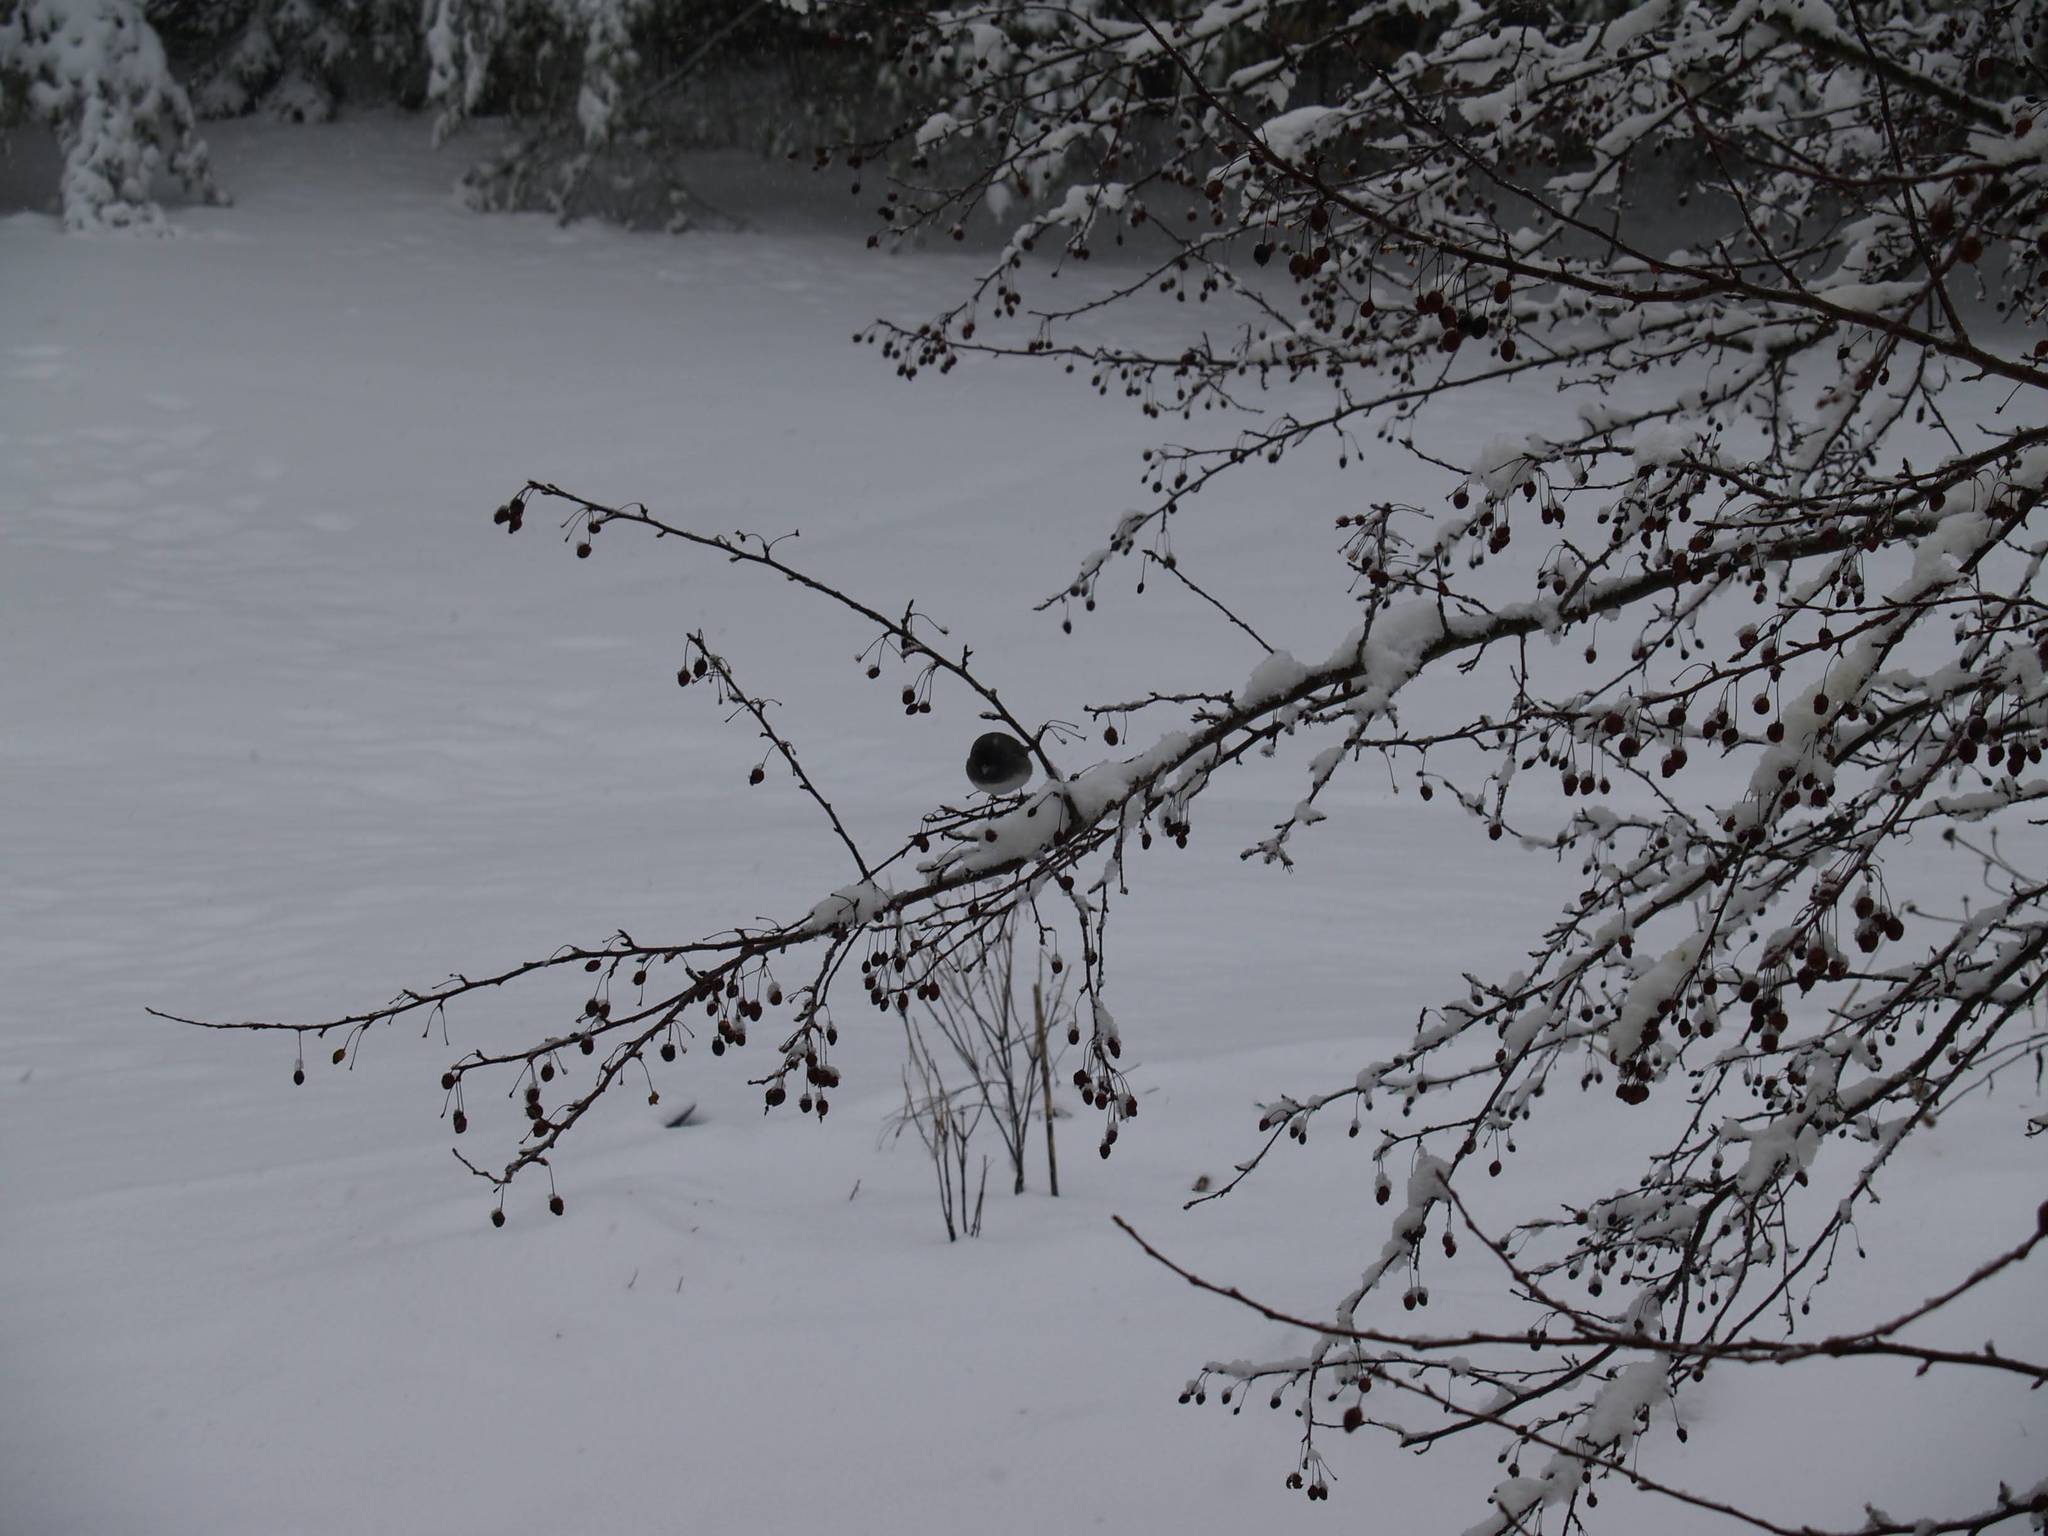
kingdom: Animalia
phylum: Chordata
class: Aves
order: Passeriformes
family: Passerellidae
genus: Junco
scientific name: Junco hyemalis
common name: Dark-eyed junco
